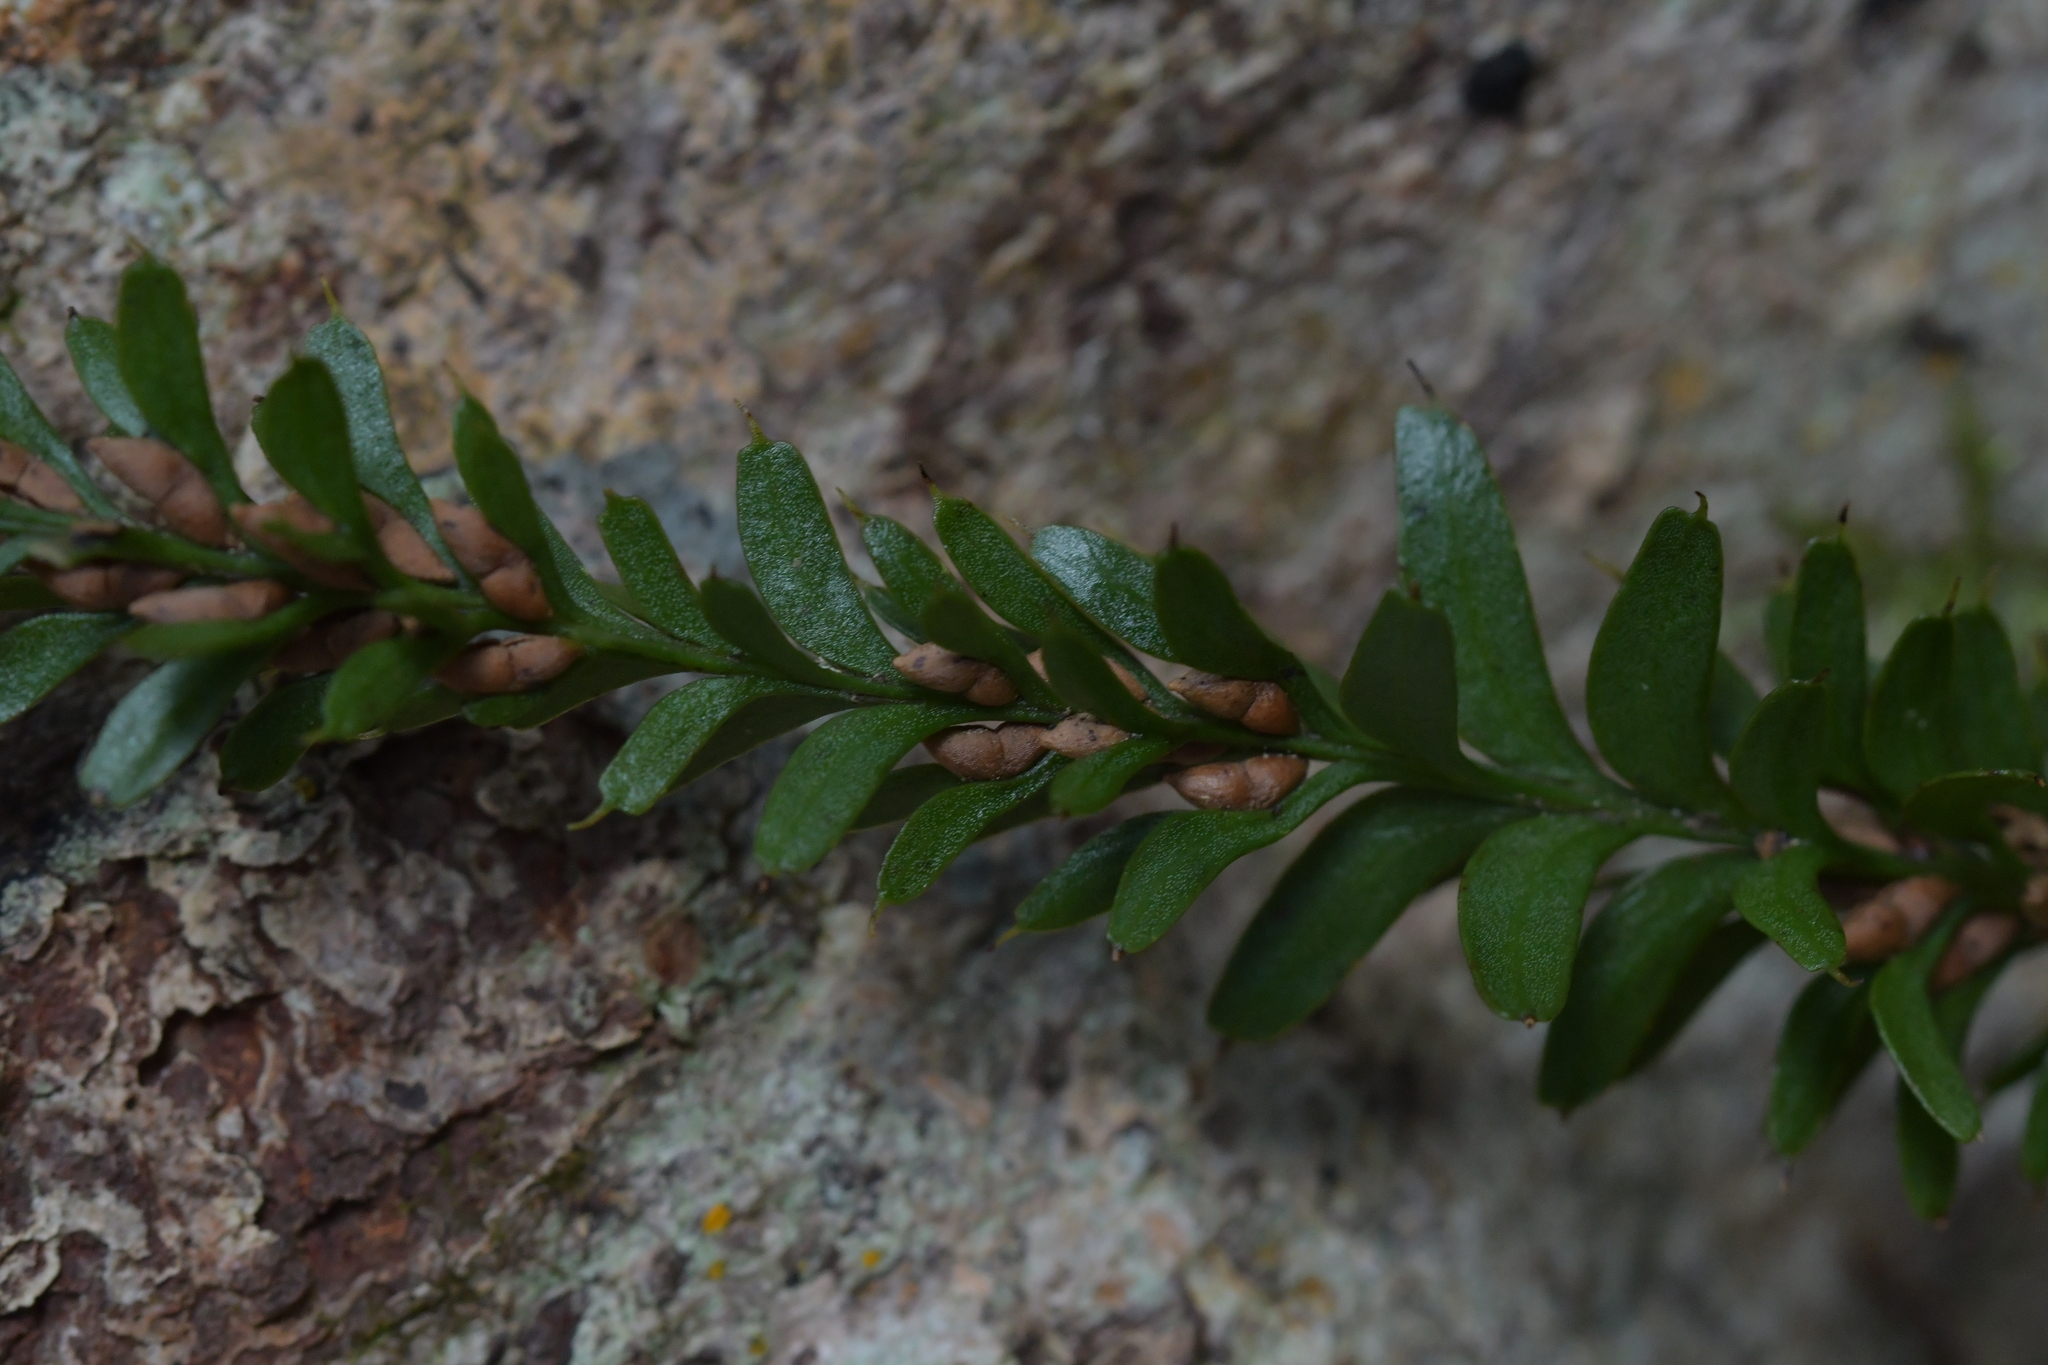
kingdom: Plantae
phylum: Tracheophyta
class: Polypodiopsida
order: Psilotales
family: Psilotaceae
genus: Tmesipteris
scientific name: Tmesipteris tannensis
